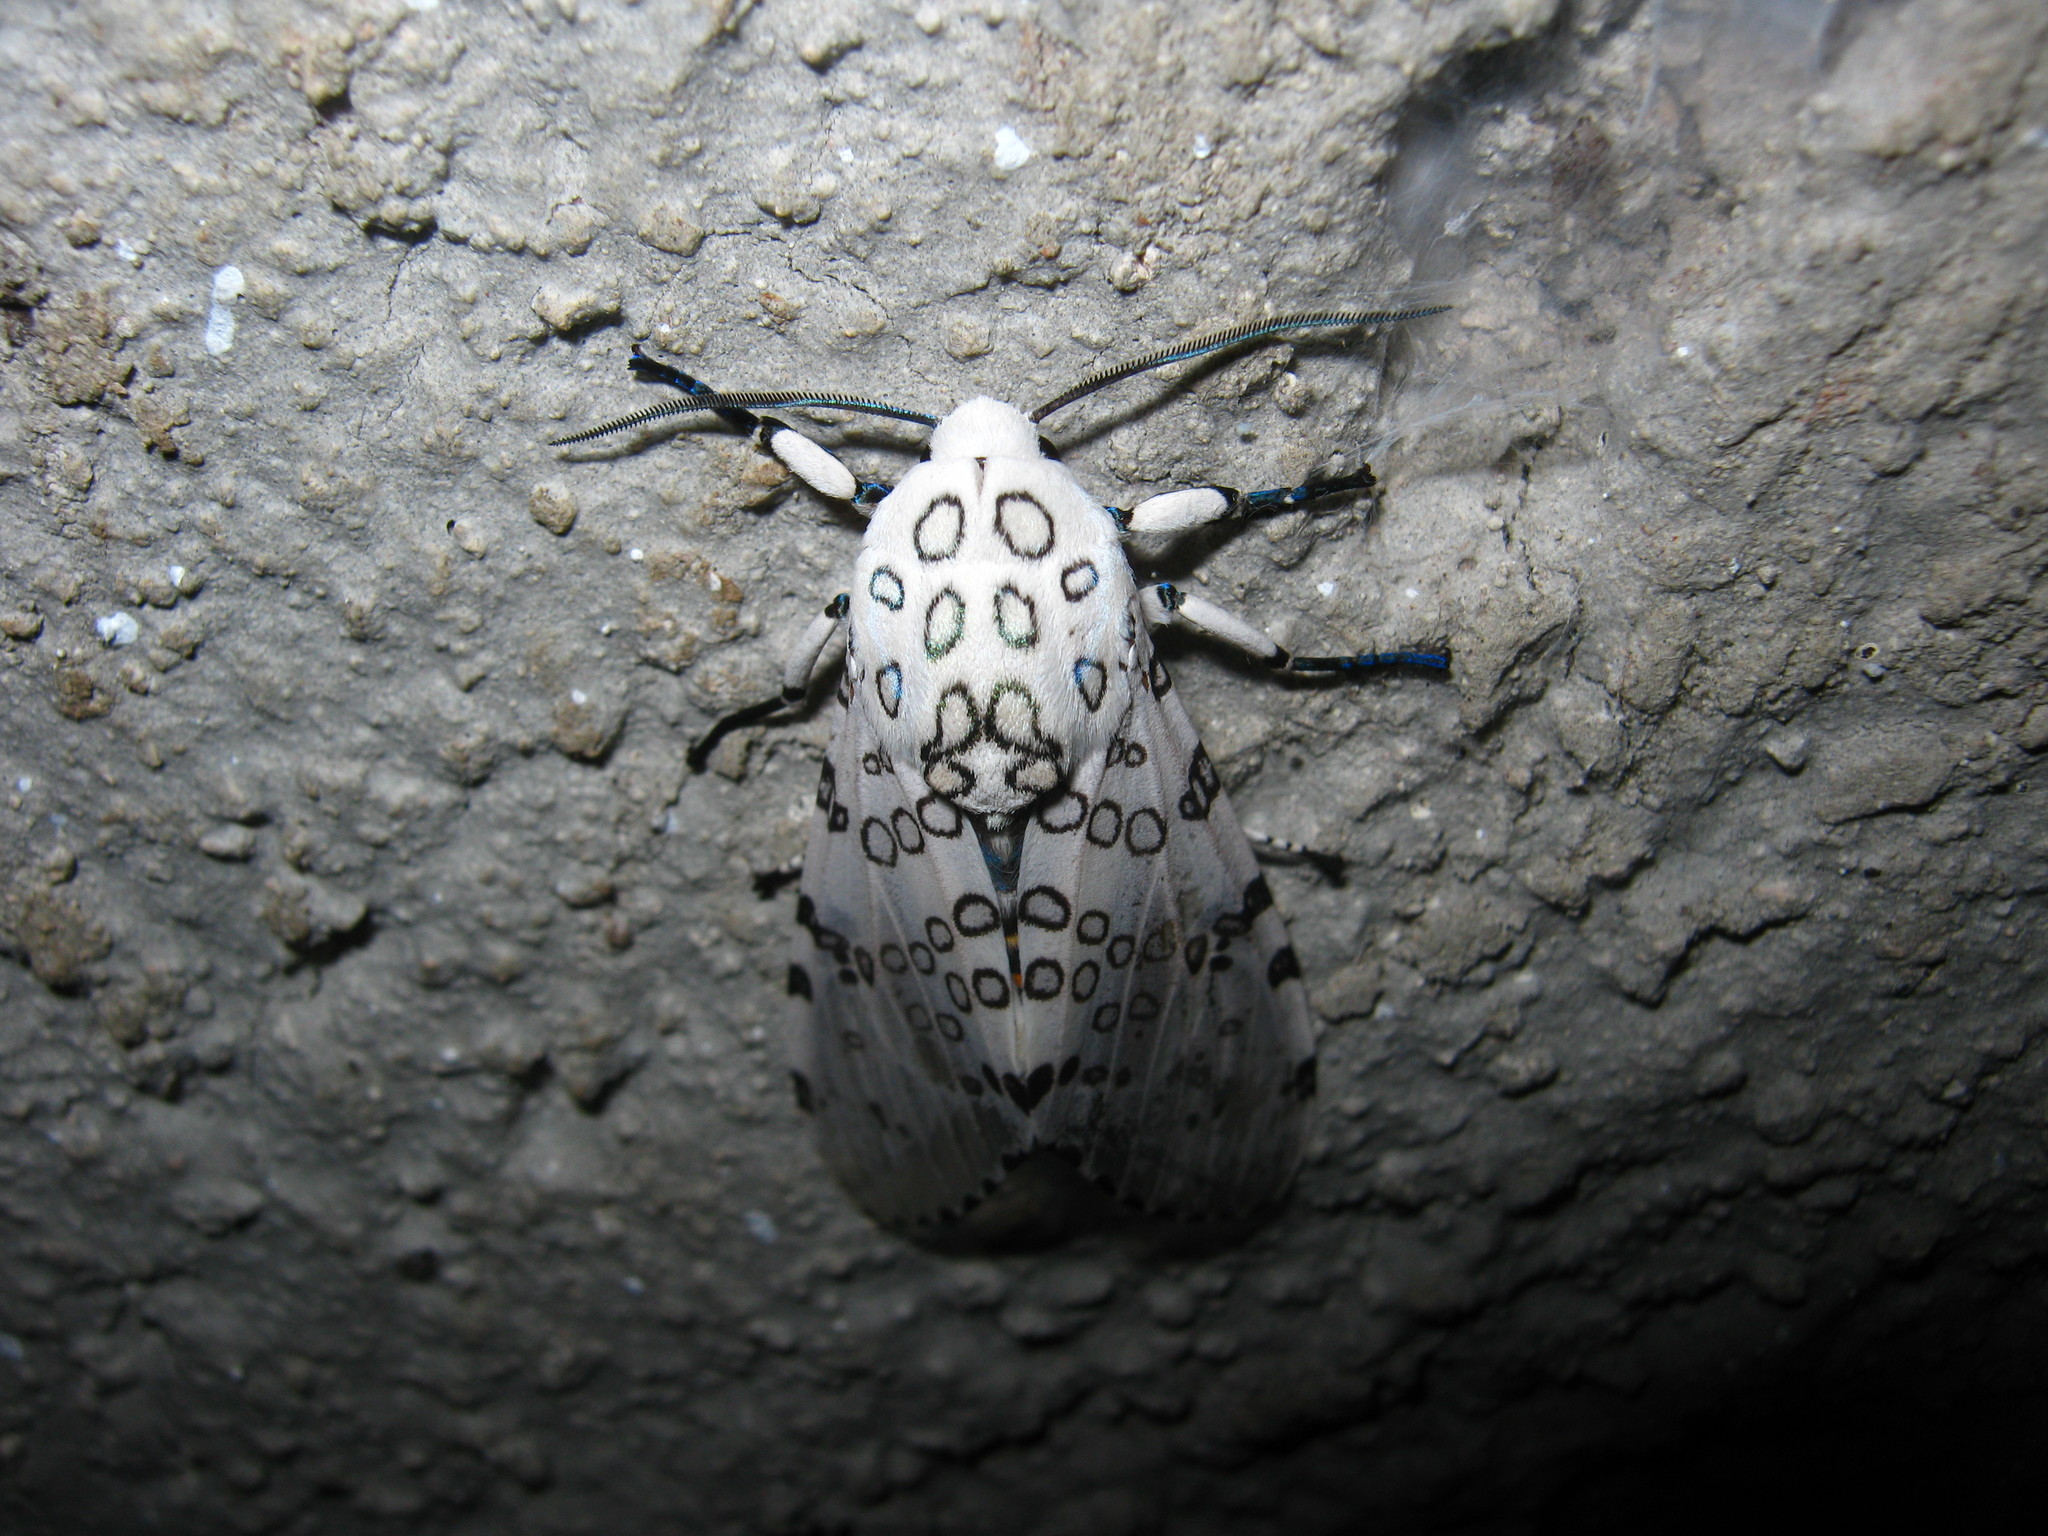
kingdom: Animalia
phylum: Arthropoda
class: Insecta
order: Lepidoptera
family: Erebidae
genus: Hypercompe
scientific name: Hypercompe scribonia
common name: Giant leopard moth
